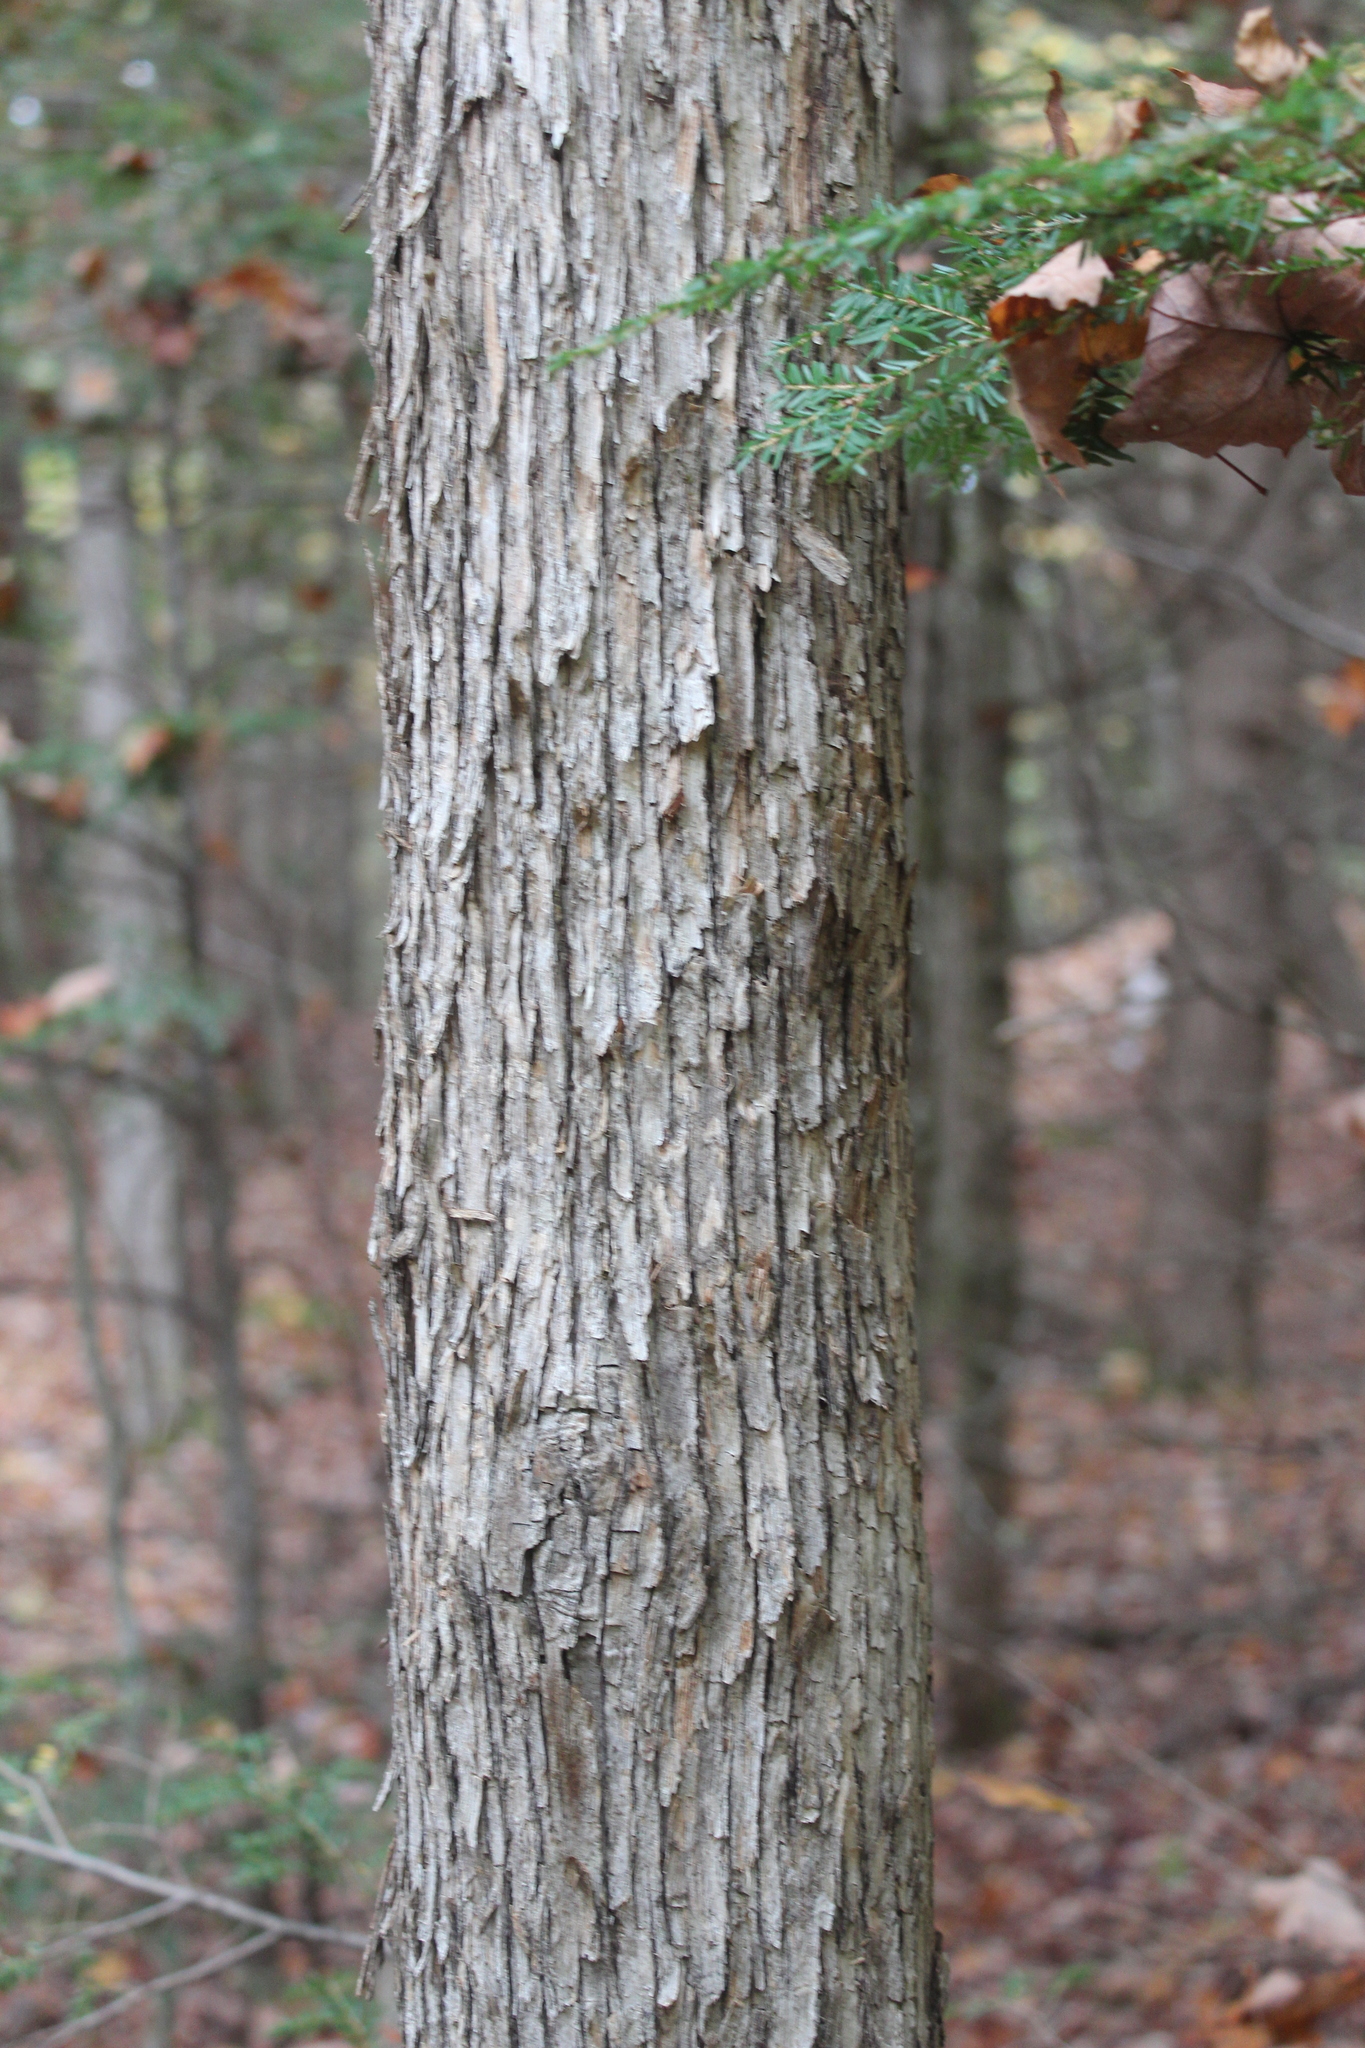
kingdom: Plantae
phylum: Tracheophyta
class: Magnoliopsida
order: Fagales
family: Betulaceae
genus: Ostrya
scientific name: Ostrya virginiana
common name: Ironwood
